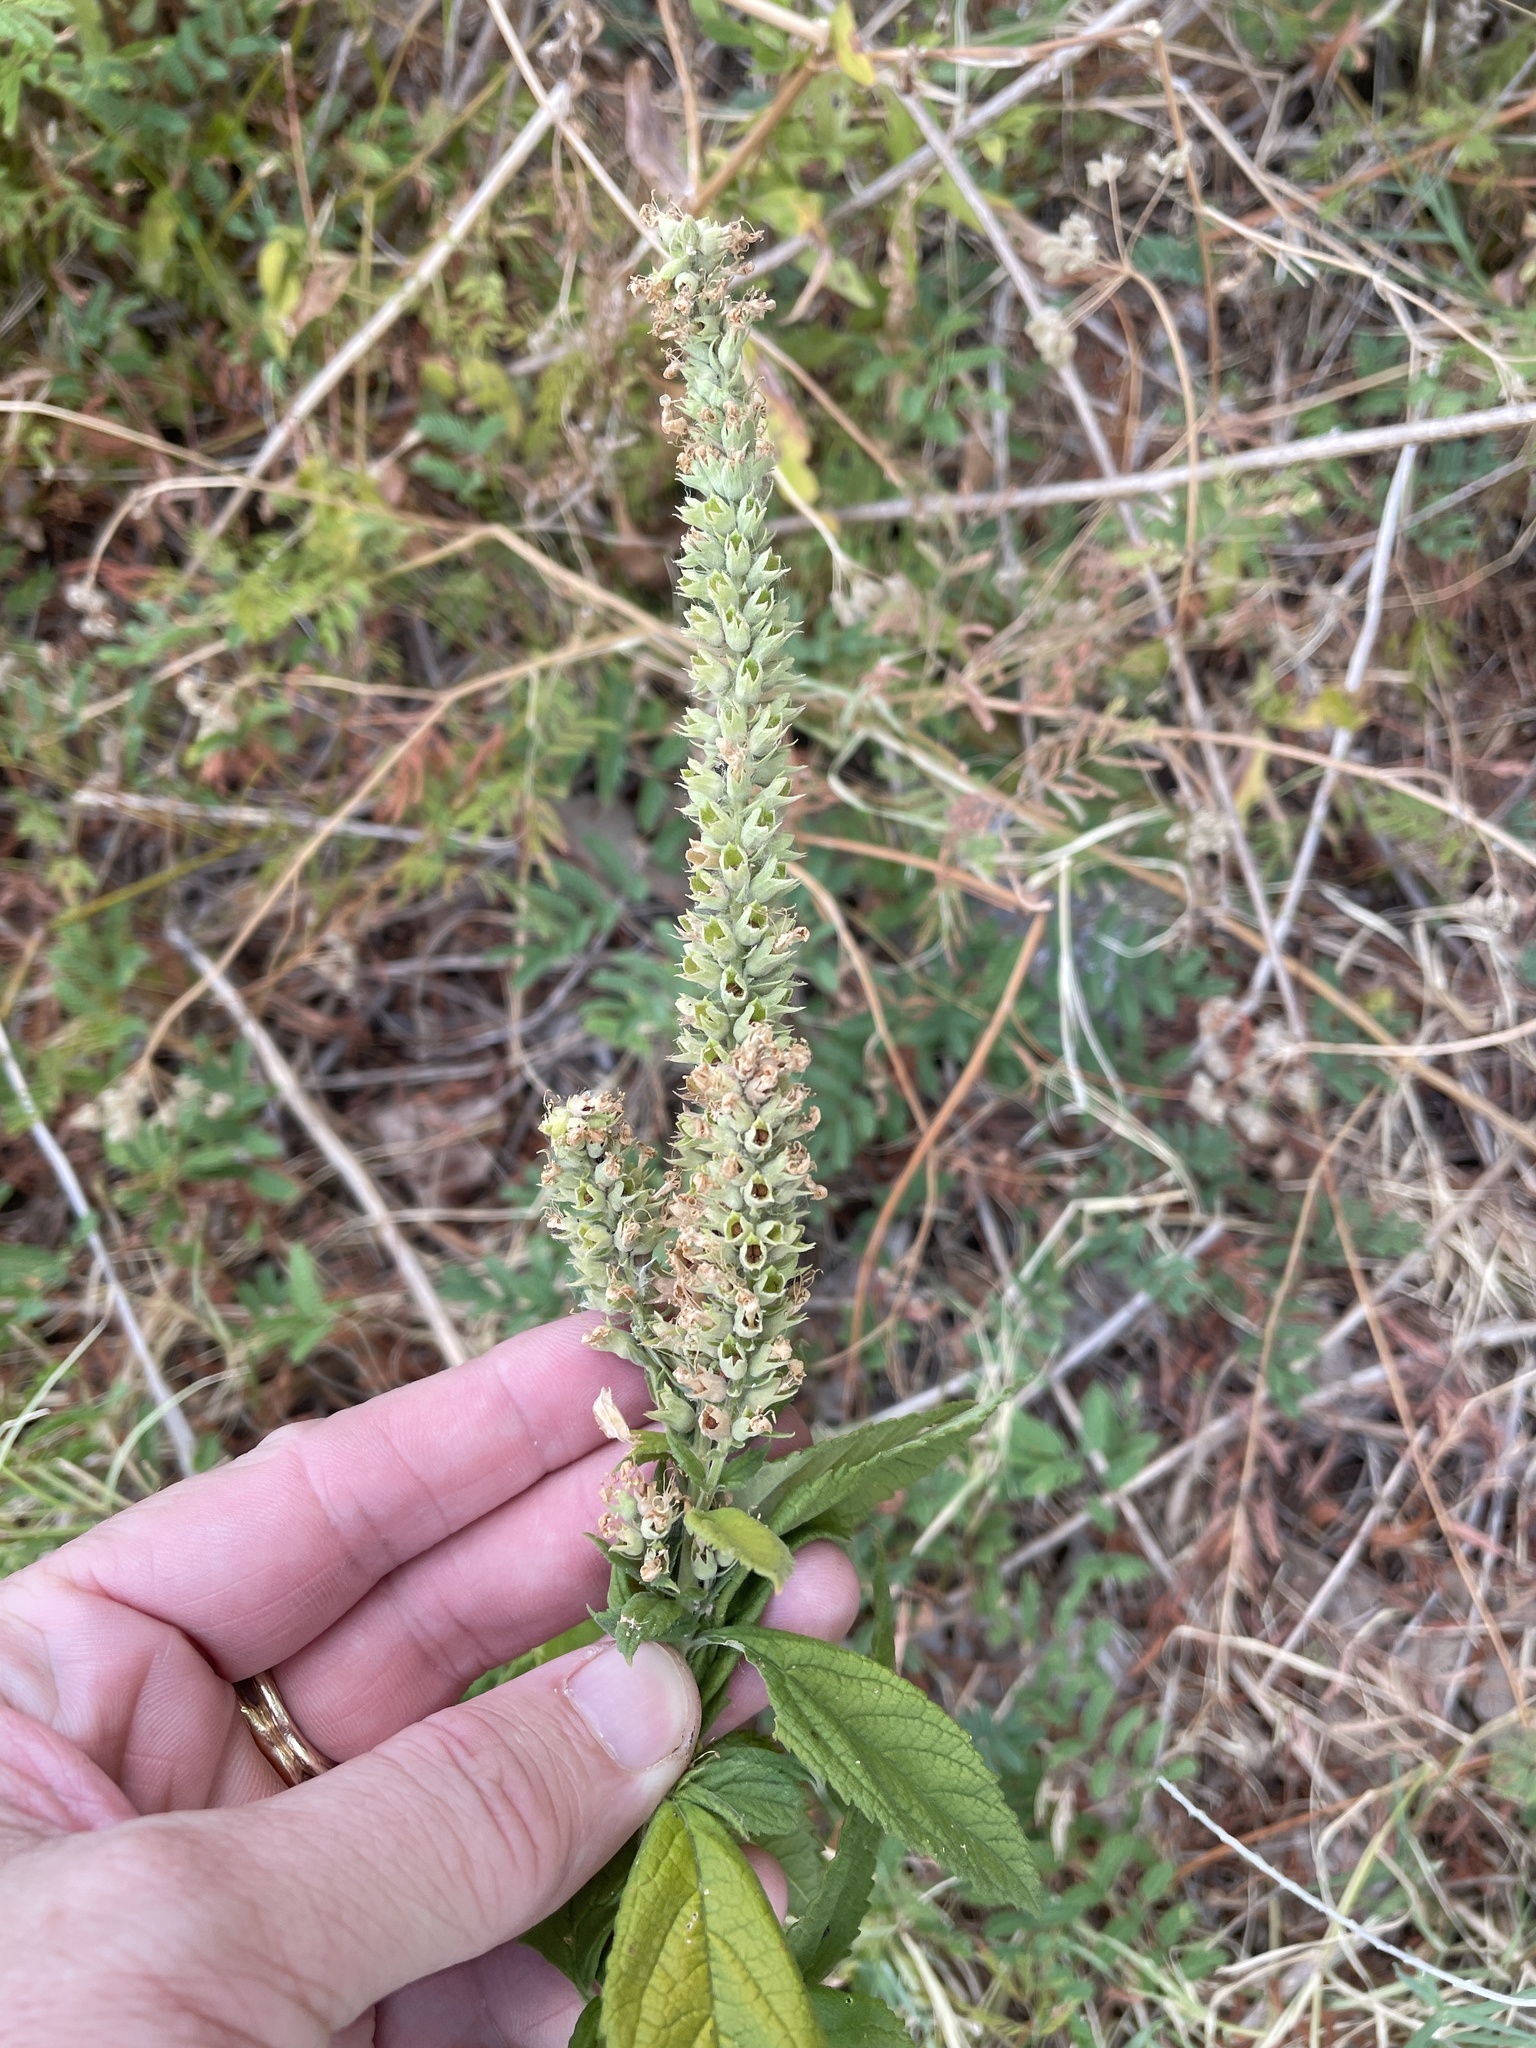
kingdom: Plantae
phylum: Tracheophyta
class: Magnoliopsida
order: Lamiales
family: Lamiaceae
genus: Teucrium
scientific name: Teucrium canadense
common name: American germander
